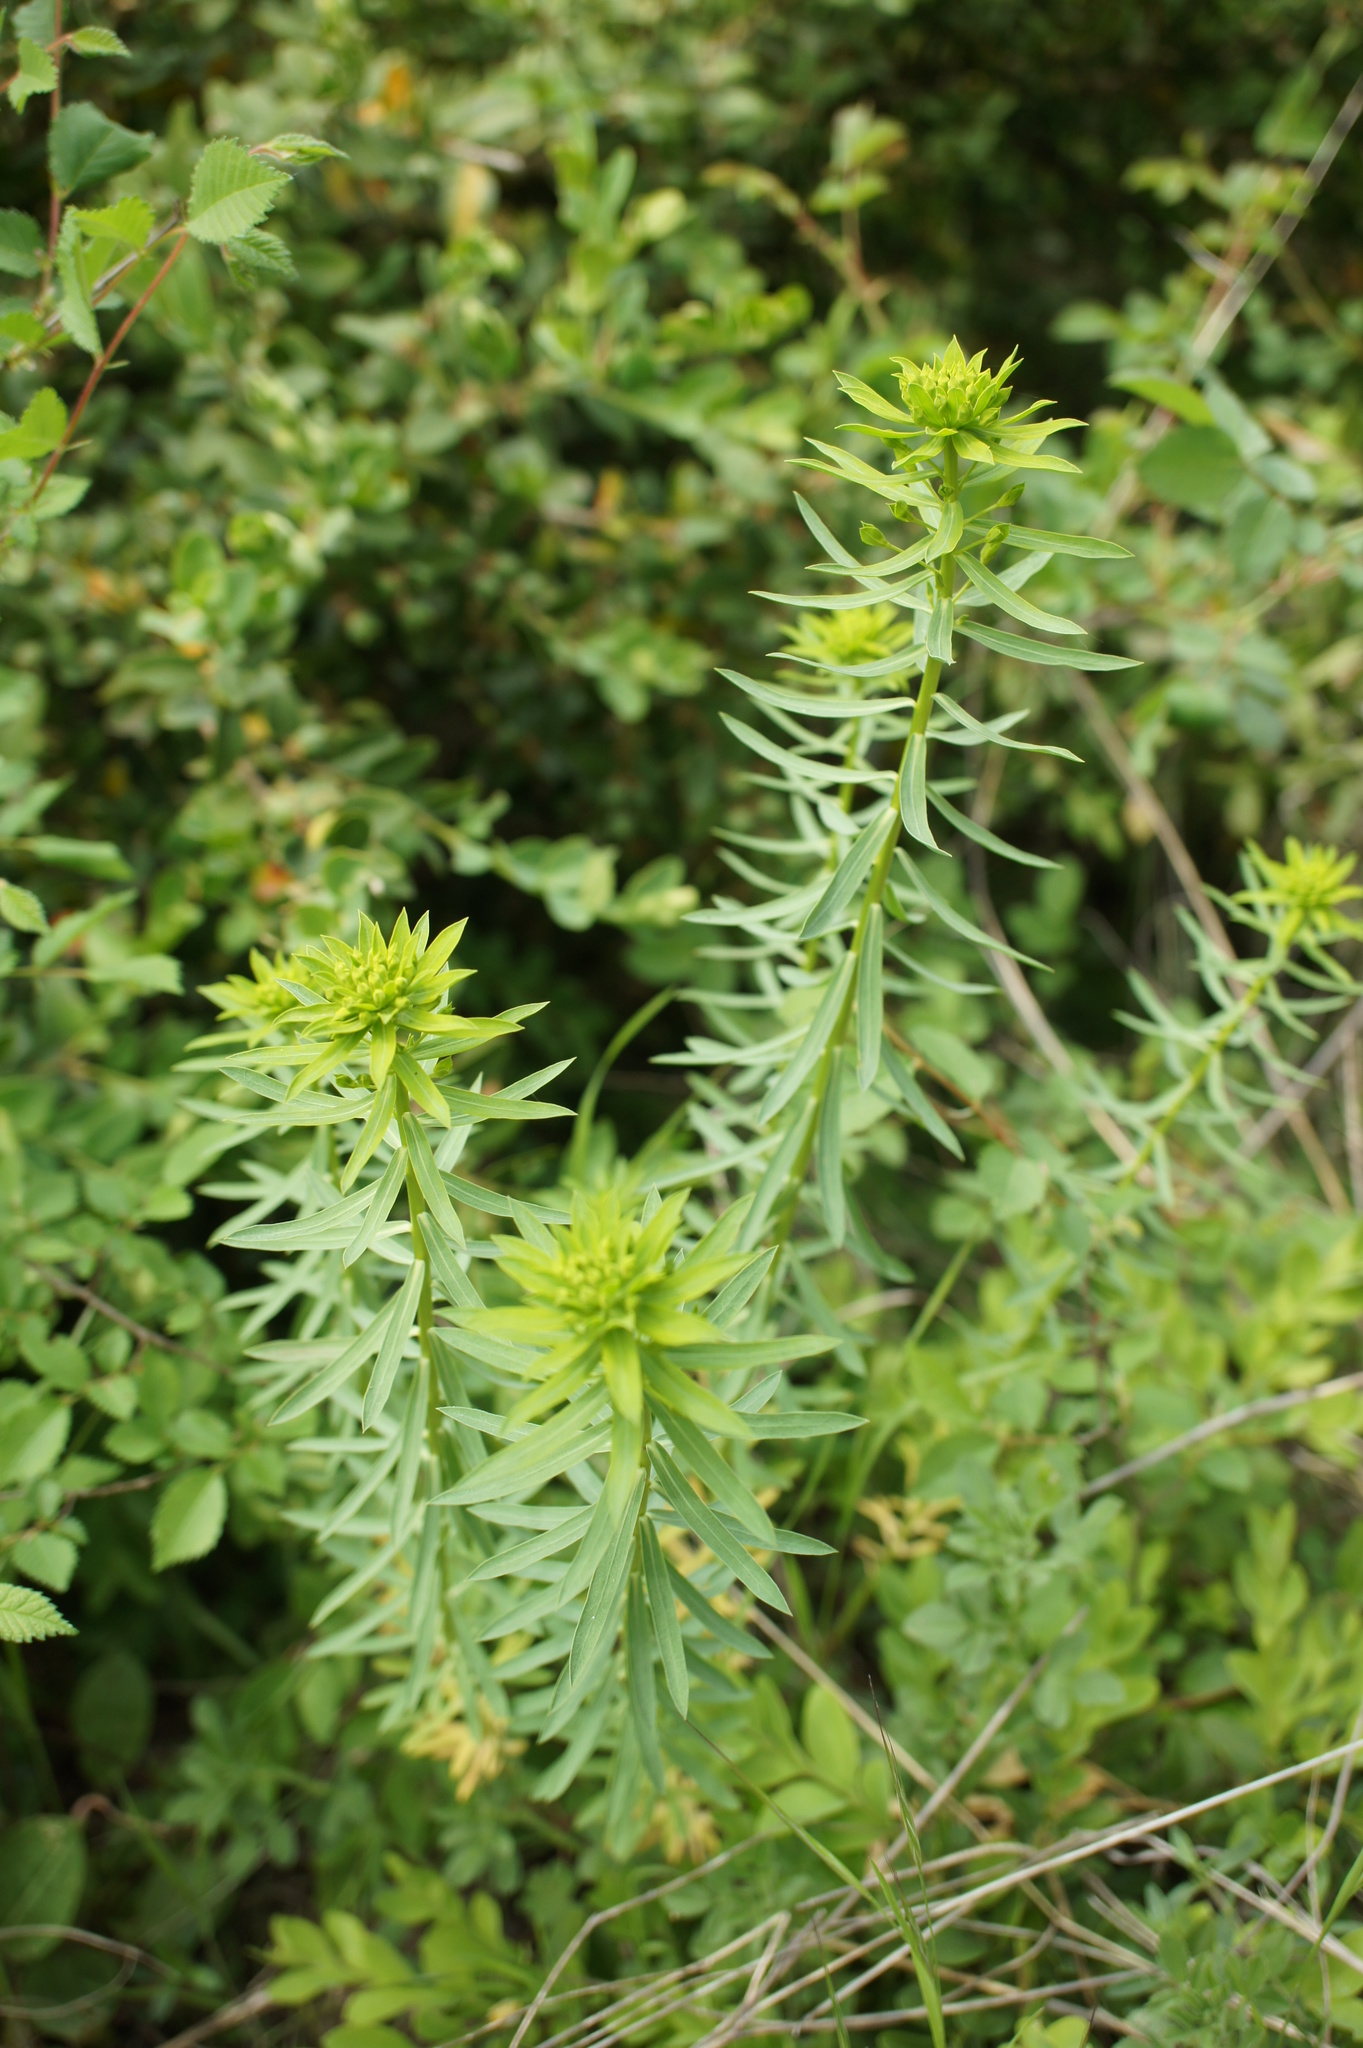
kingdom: Plantae
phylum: Tracheophyta
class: Magnoliopsida
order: Malpighiales
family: Euphorbiaceae
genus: Euphorbia
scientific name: Euphorbia niciciana
